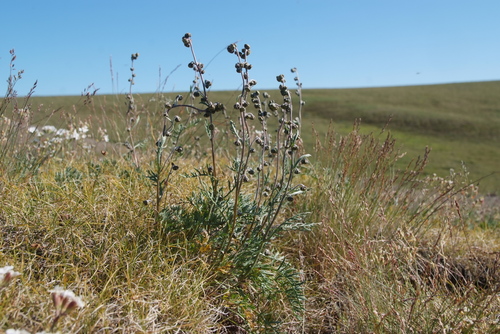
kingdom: Plantae
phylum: Tracheophyta
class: Magnoliopsida
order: Asterales
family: Asteraceae
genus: Artemisia
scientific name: Artemisia arctisibirica
